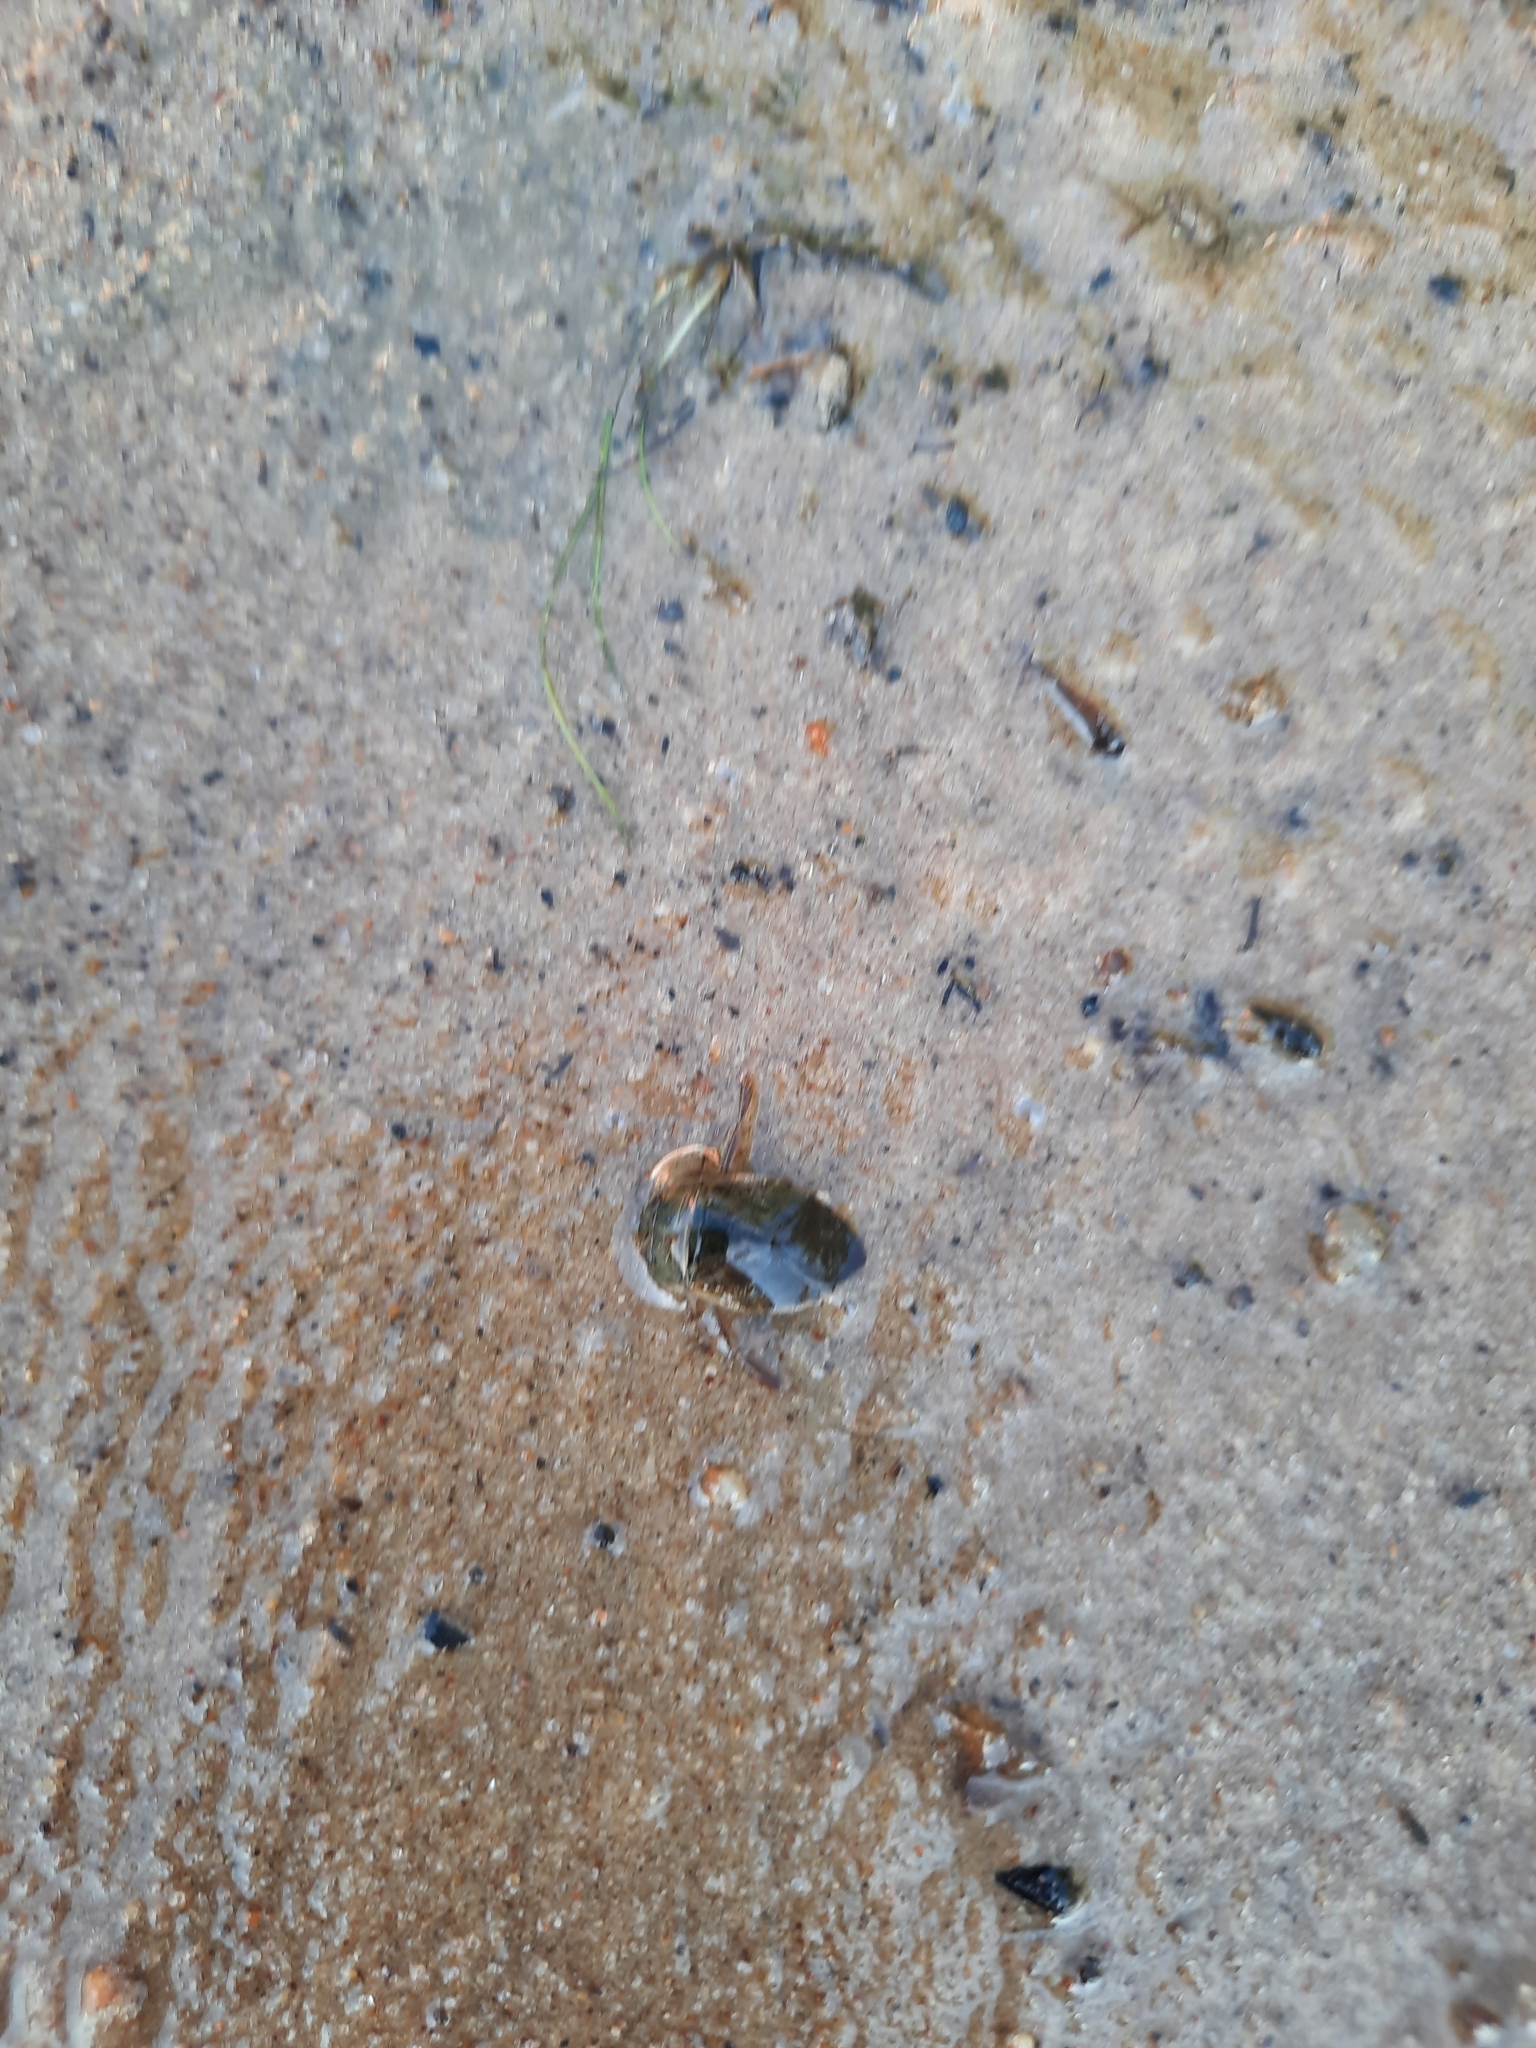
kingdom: Animalia
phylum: Arthropoda
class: Insecta
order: Hemiptera
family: Naucoridae
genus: Ilyocoris
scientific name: Ilyocoris cimicoides
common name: Saucer bugs
